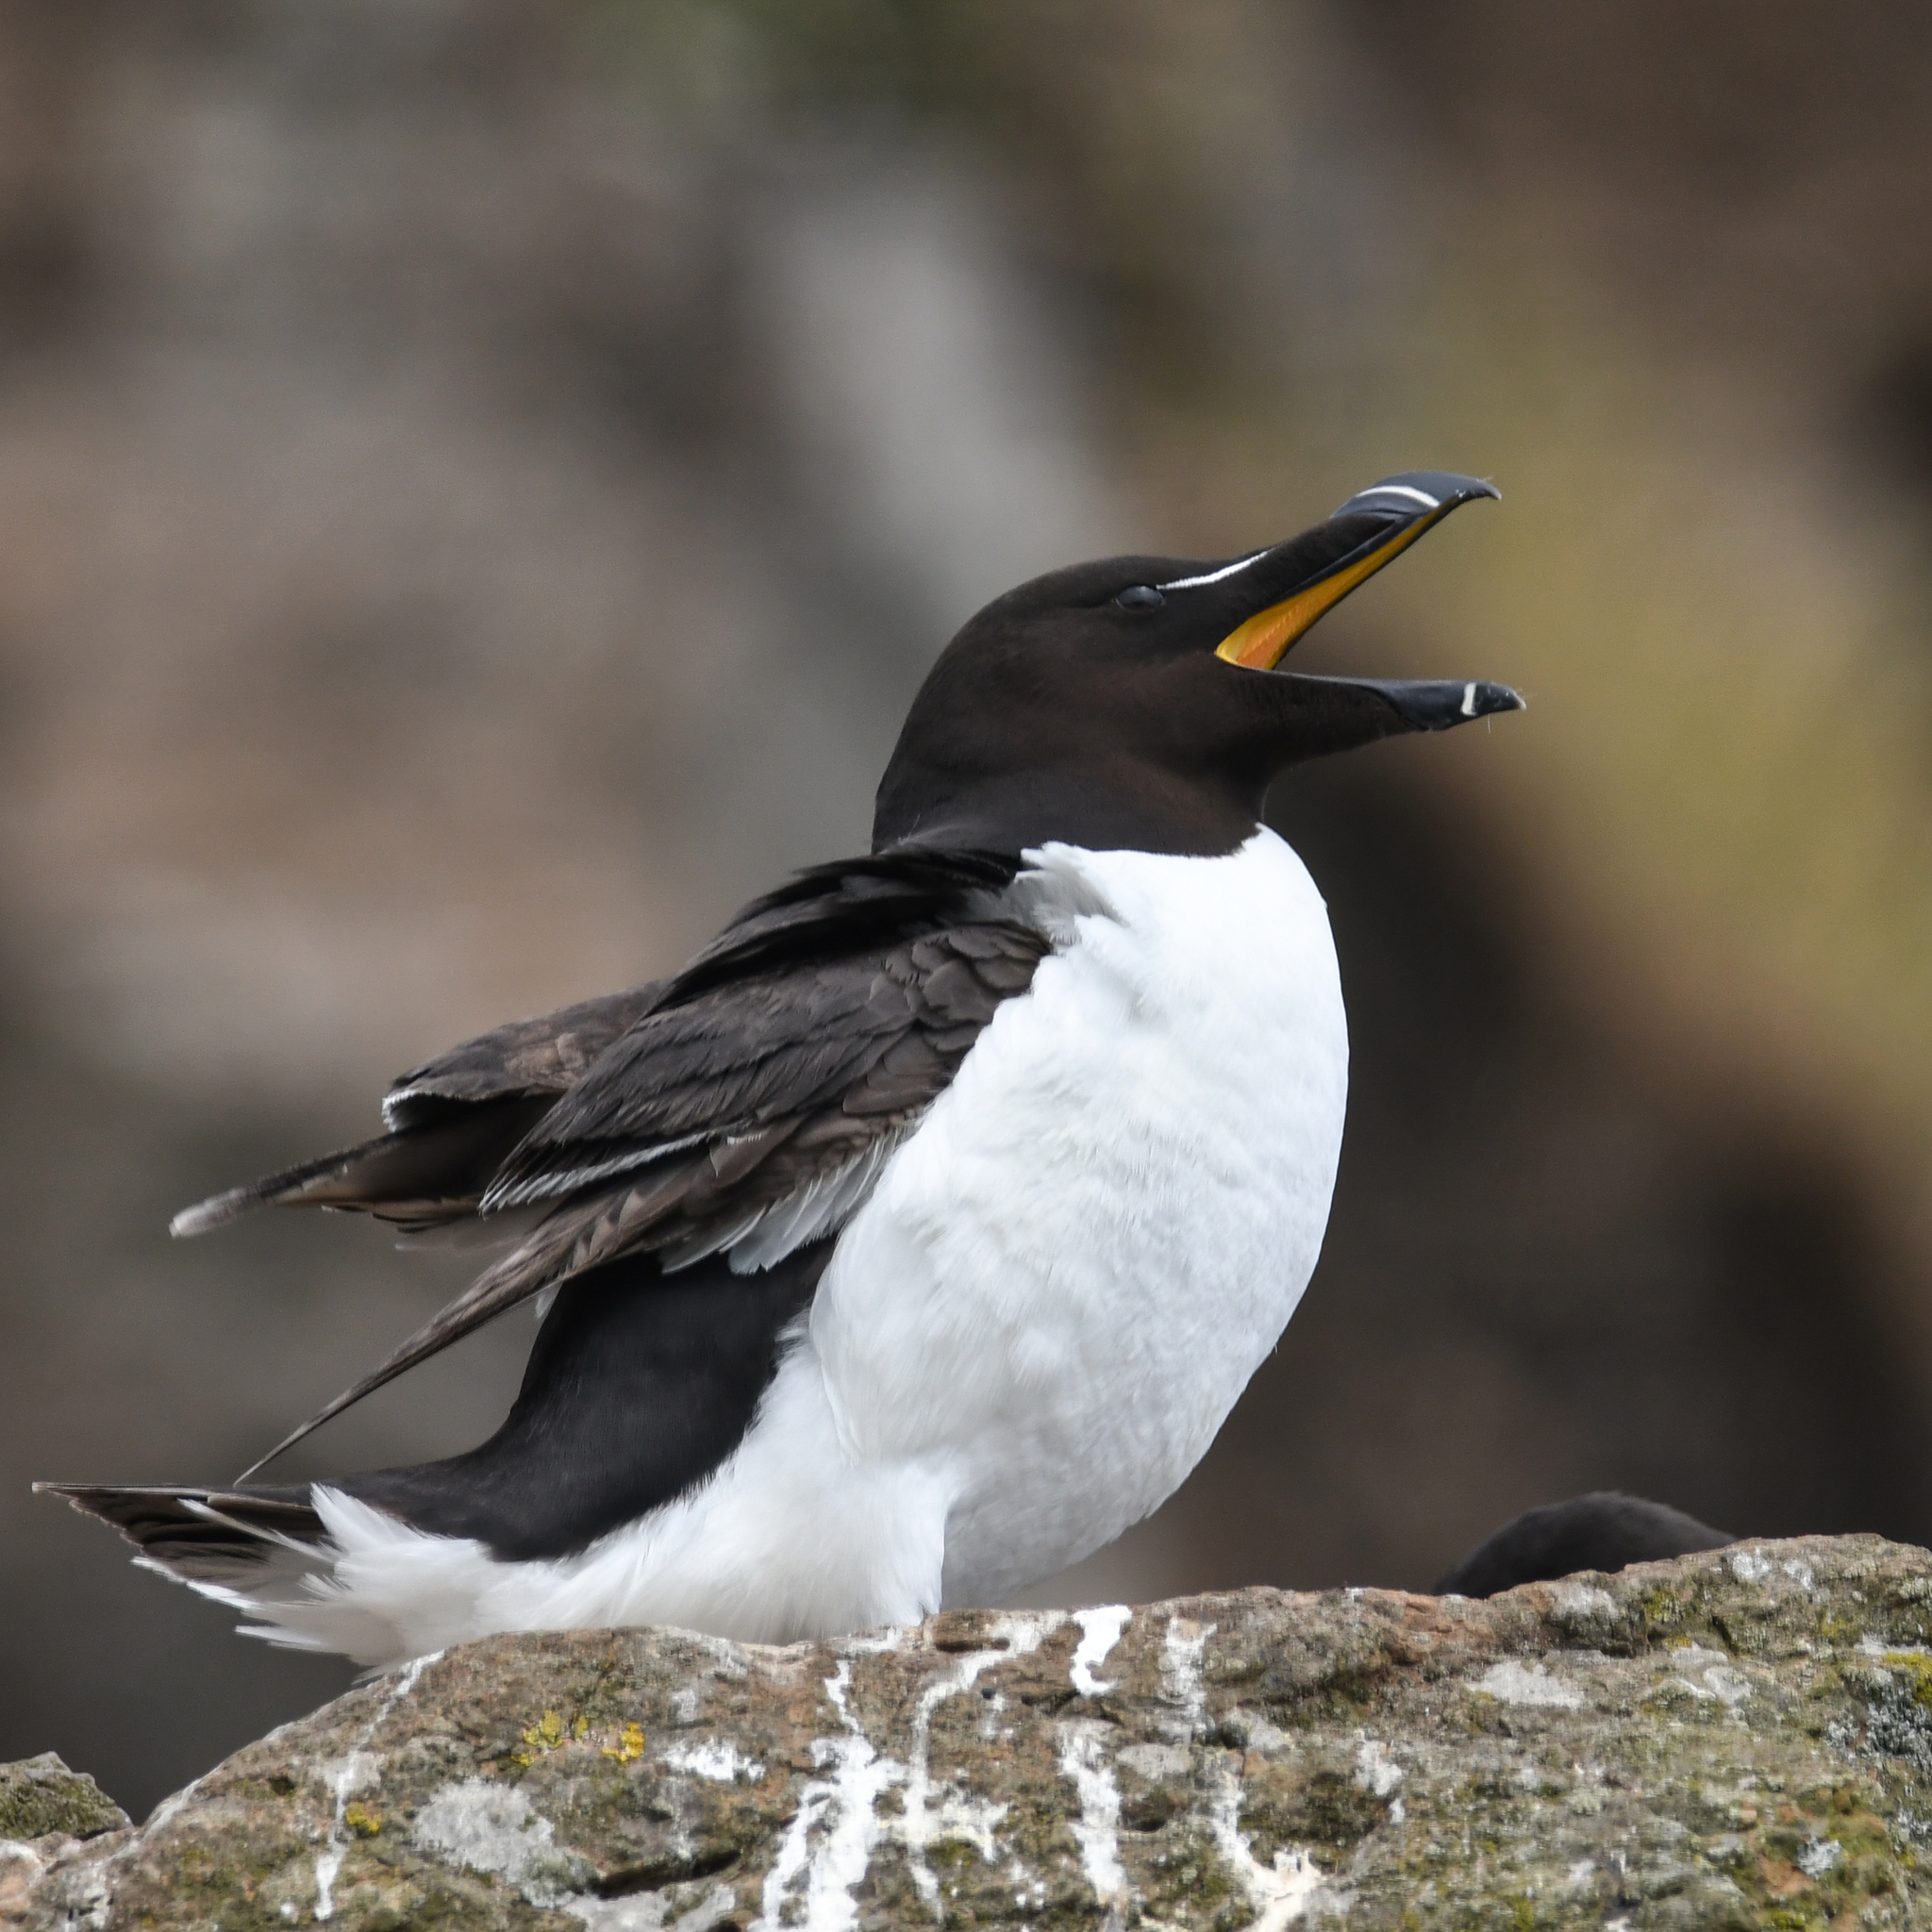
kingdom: Animalia
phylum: Chordata
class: Aves
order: Charadriiformes
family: Alcidae
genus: Alca
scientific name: Alca torda
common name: Razorbill
